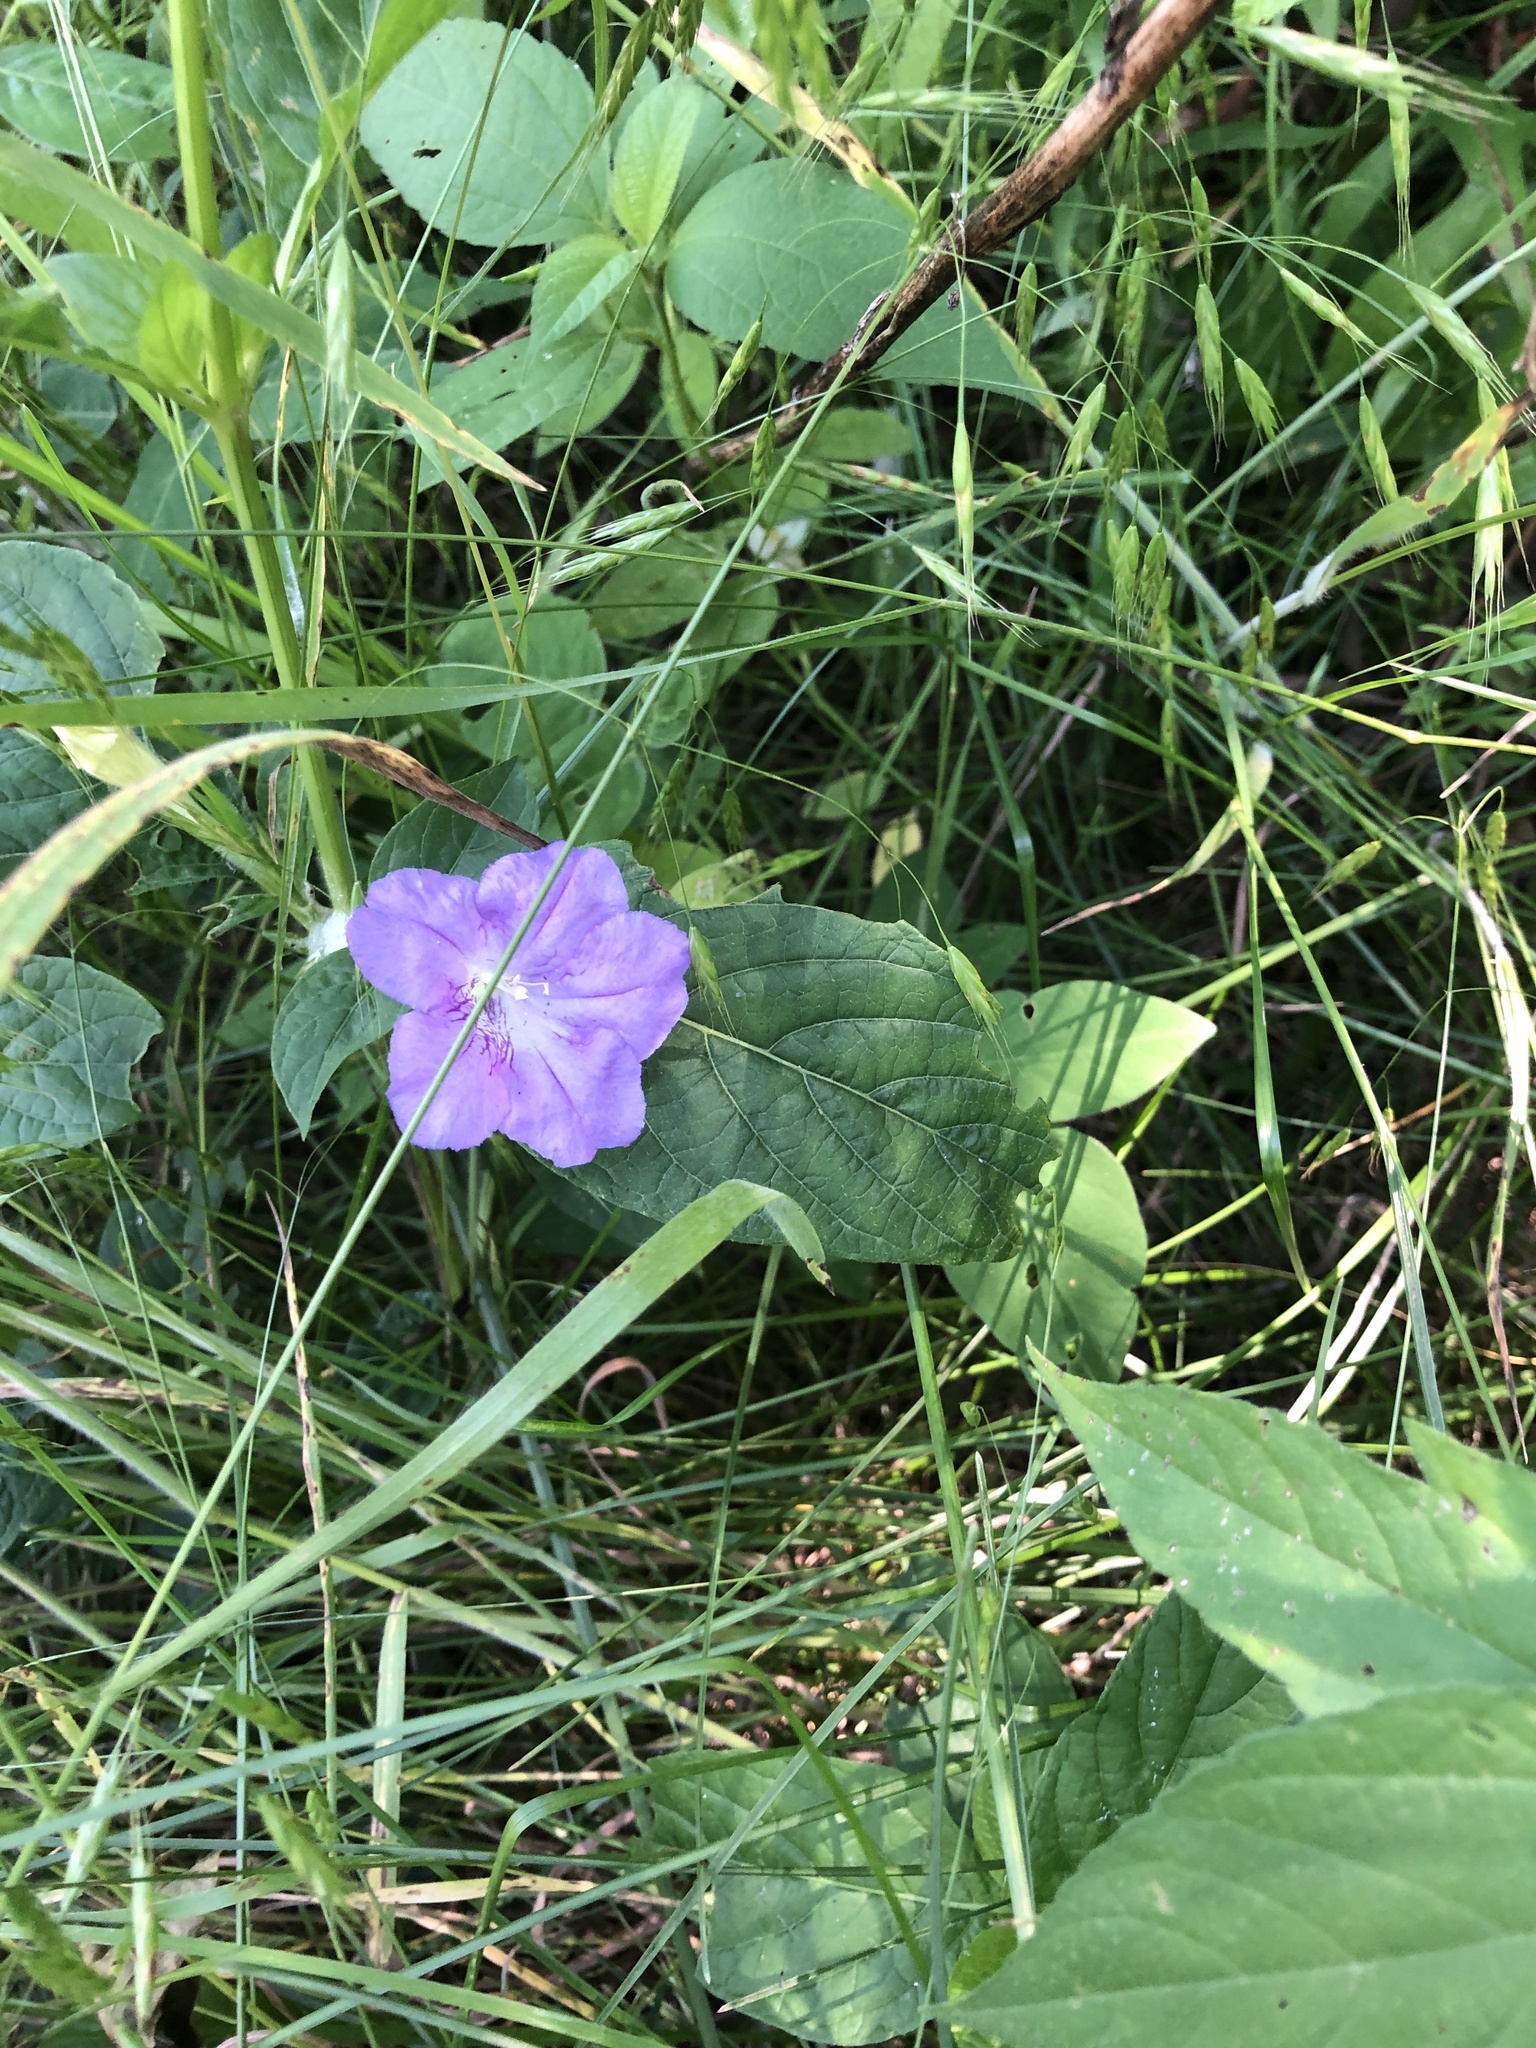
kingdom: Plantae
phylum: Tracheophyta
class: Magnoliopsida
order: Lamiales
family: Acanthaceae
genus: Ruellia
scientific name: Ruellia strepens
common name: Limestone wild petunia
